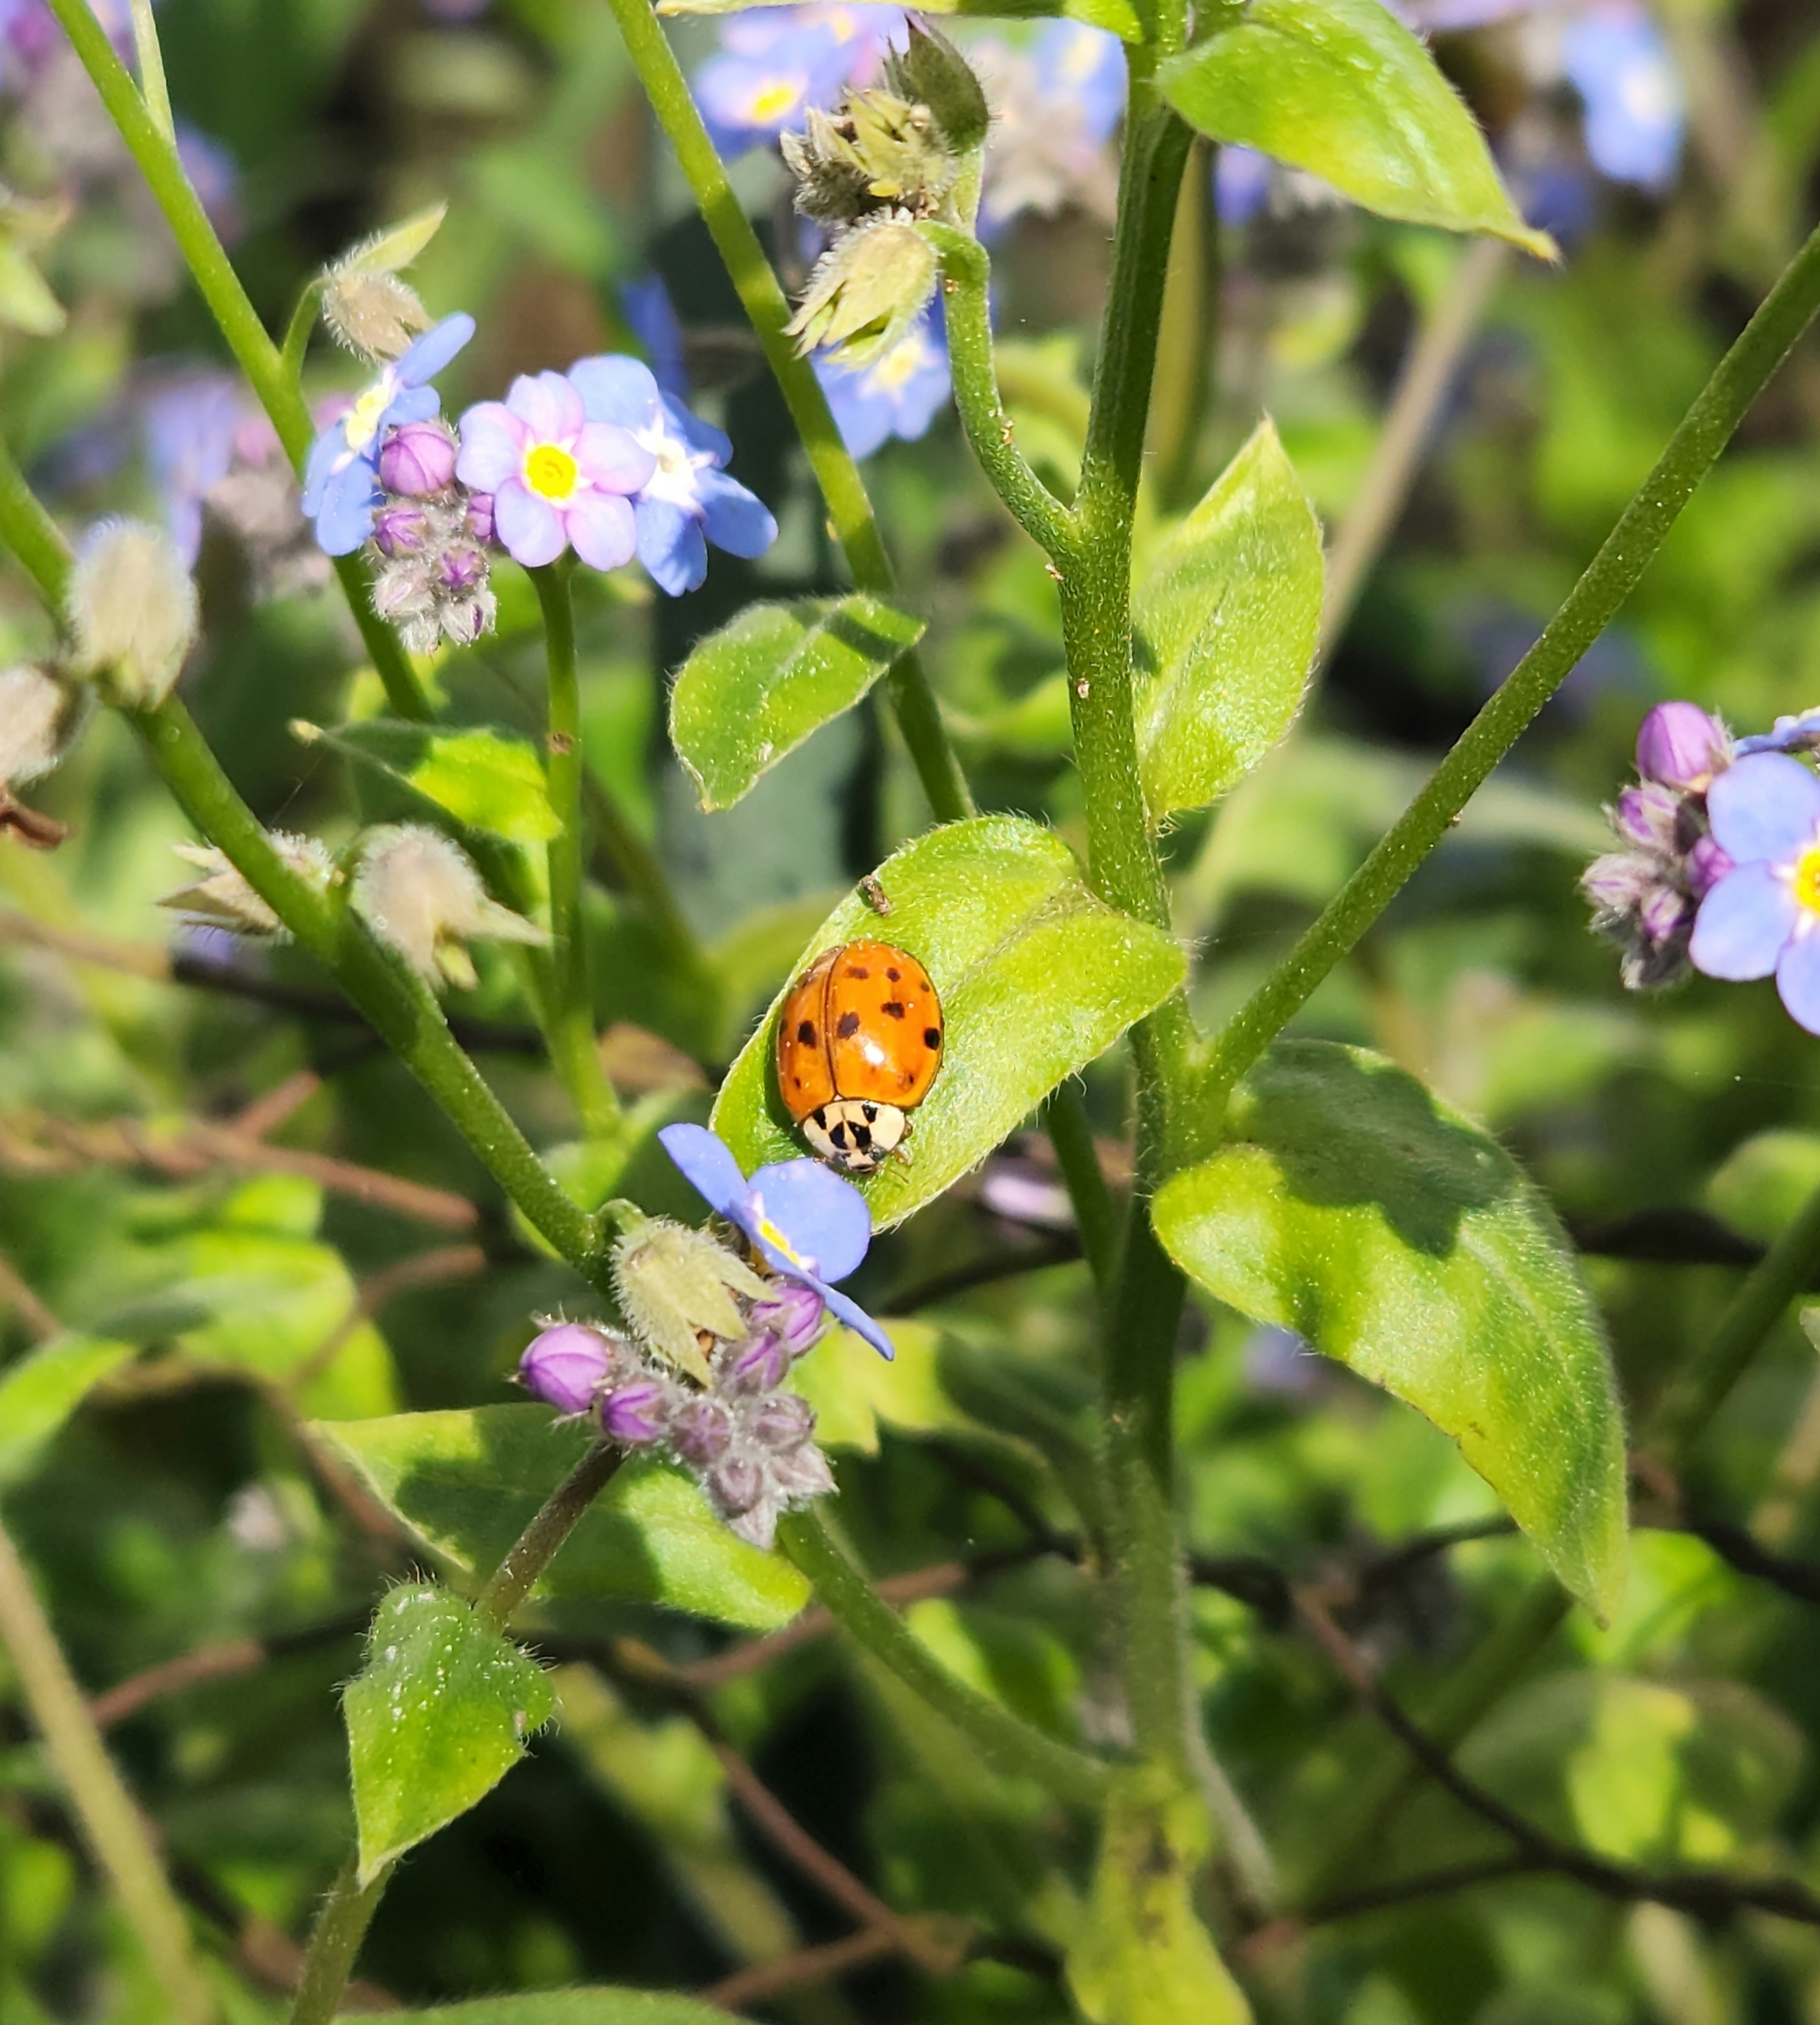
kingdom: Animalia
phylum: Arthropoda
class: Insecta
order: Coleoptera
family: Coccinellidae
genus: Harmonia
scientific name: Harmonia axyridis
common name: Harlequin ladybird
